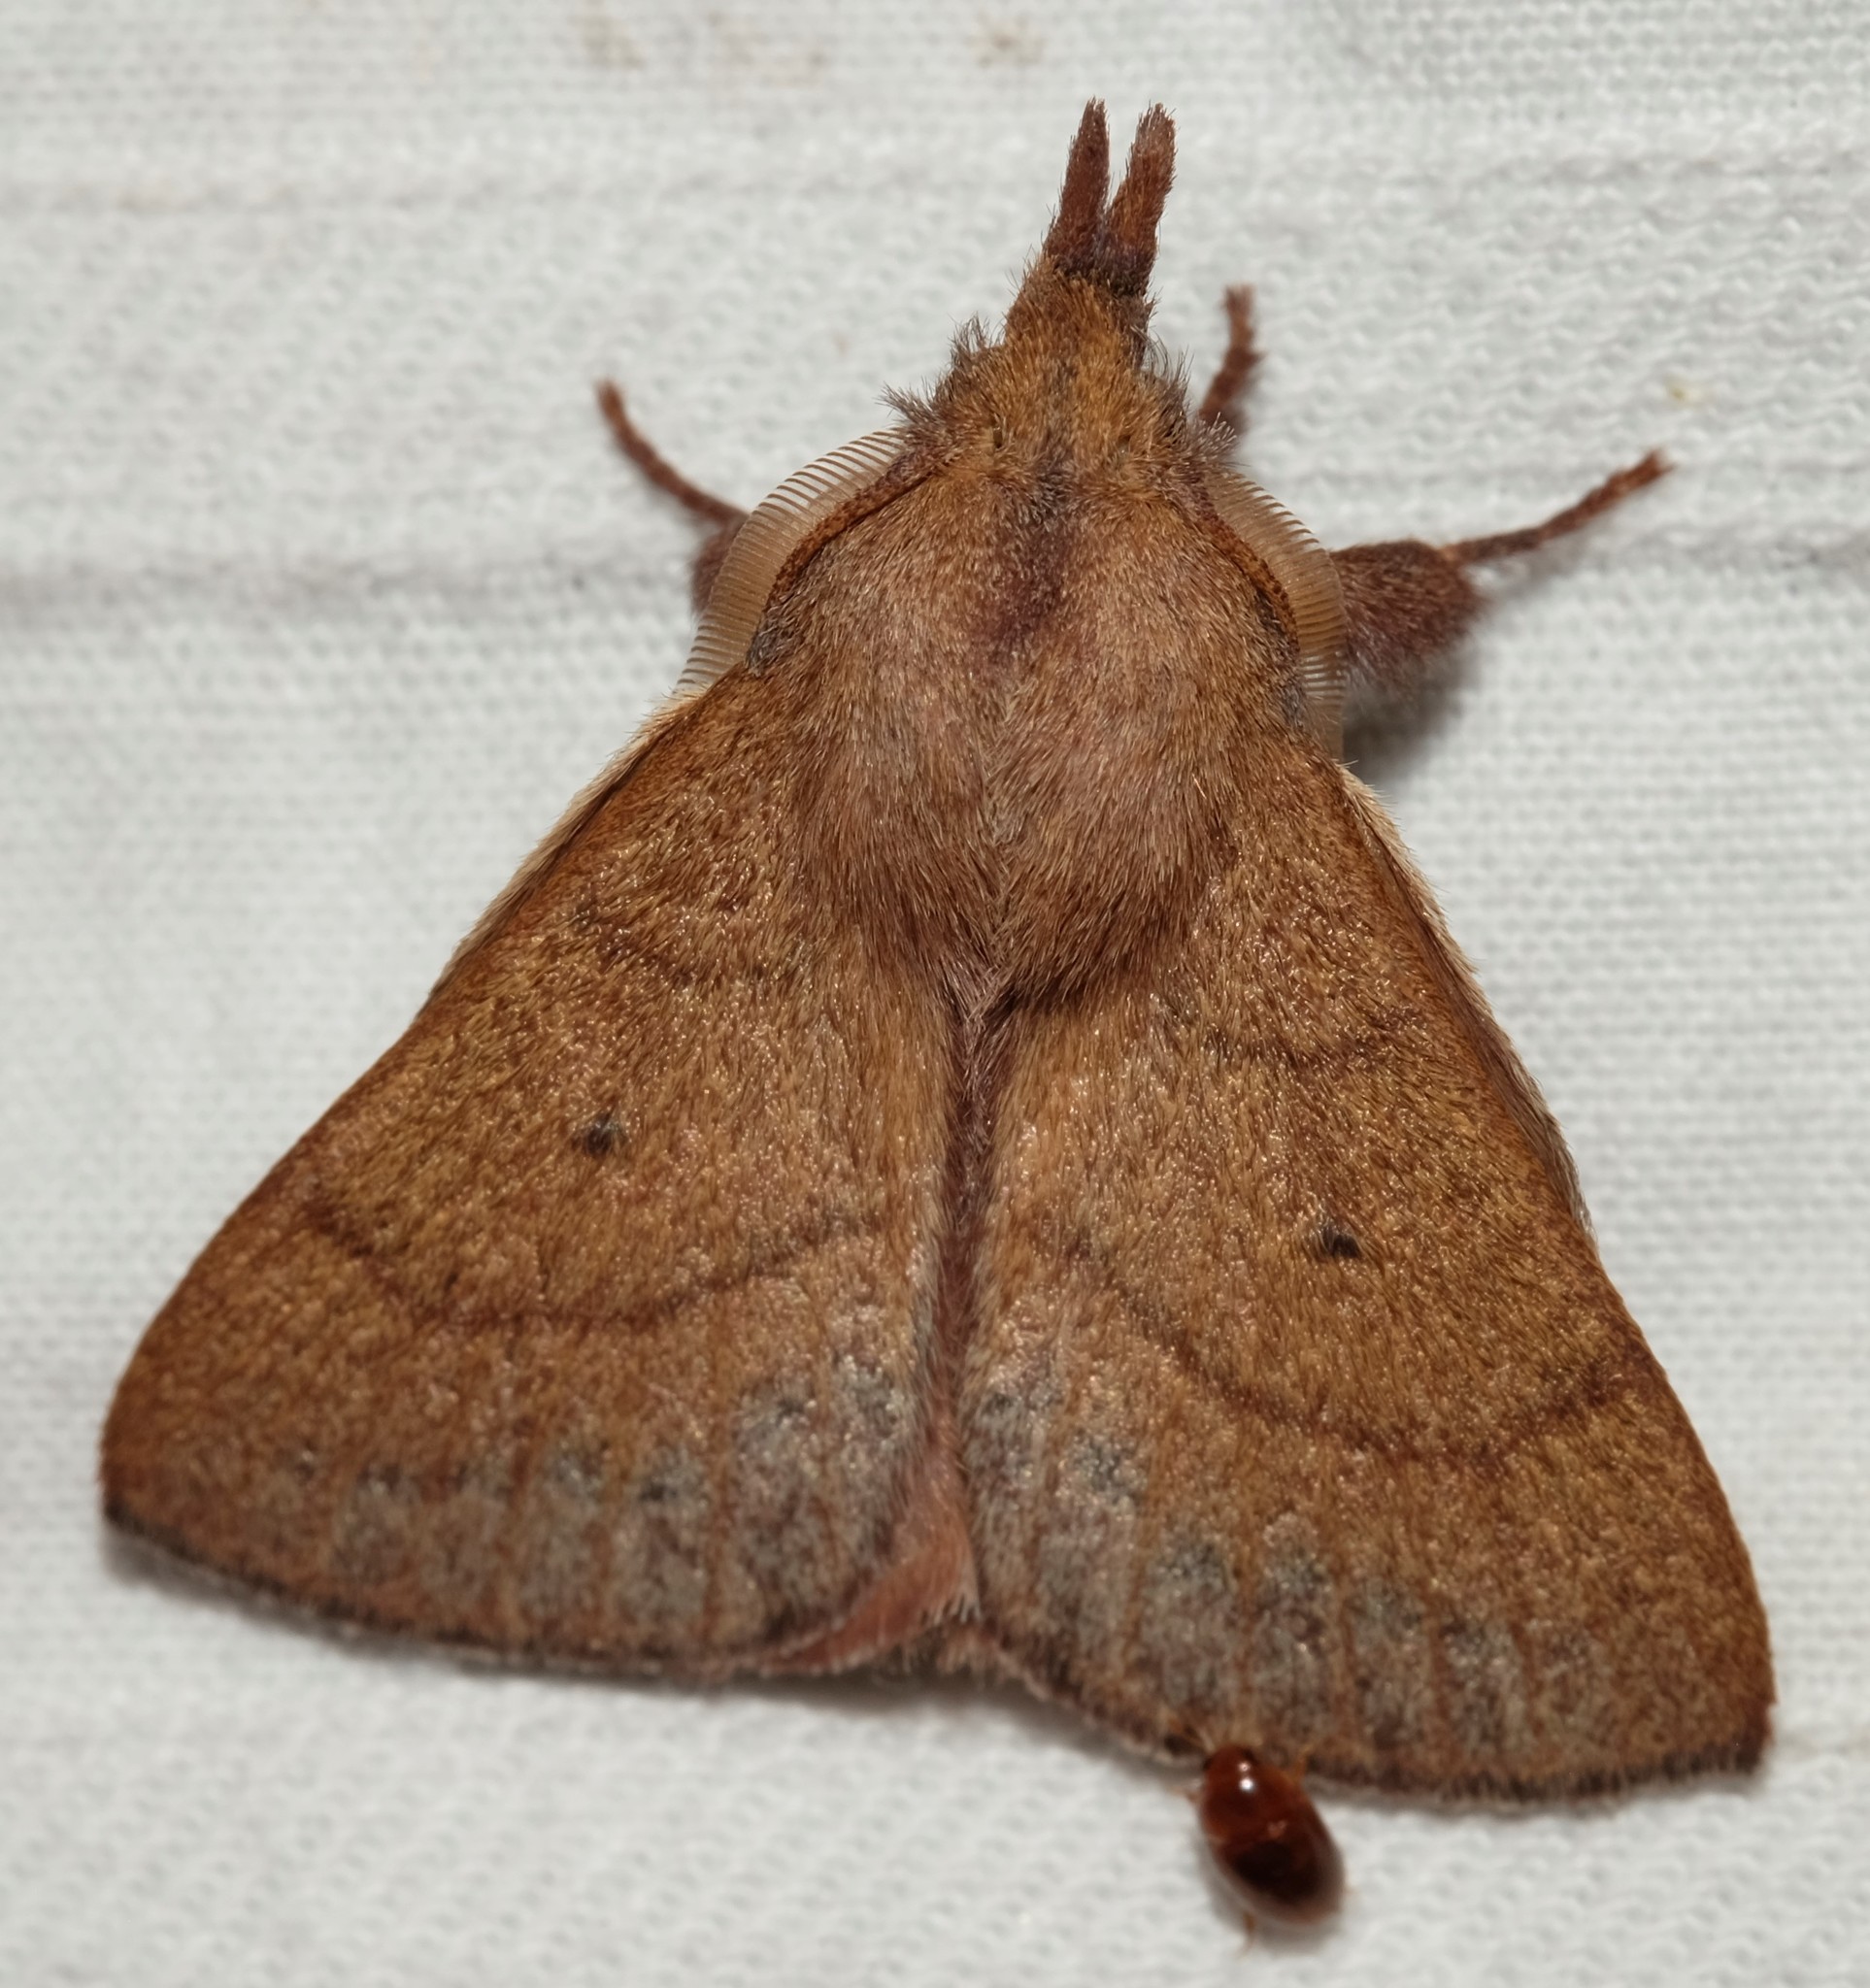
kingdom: Animalia
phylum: Arthropoda
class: Insecta
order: Lepidoptera
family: Lasiocampidae
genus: Pararguda
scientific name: Pararguda nasuta
